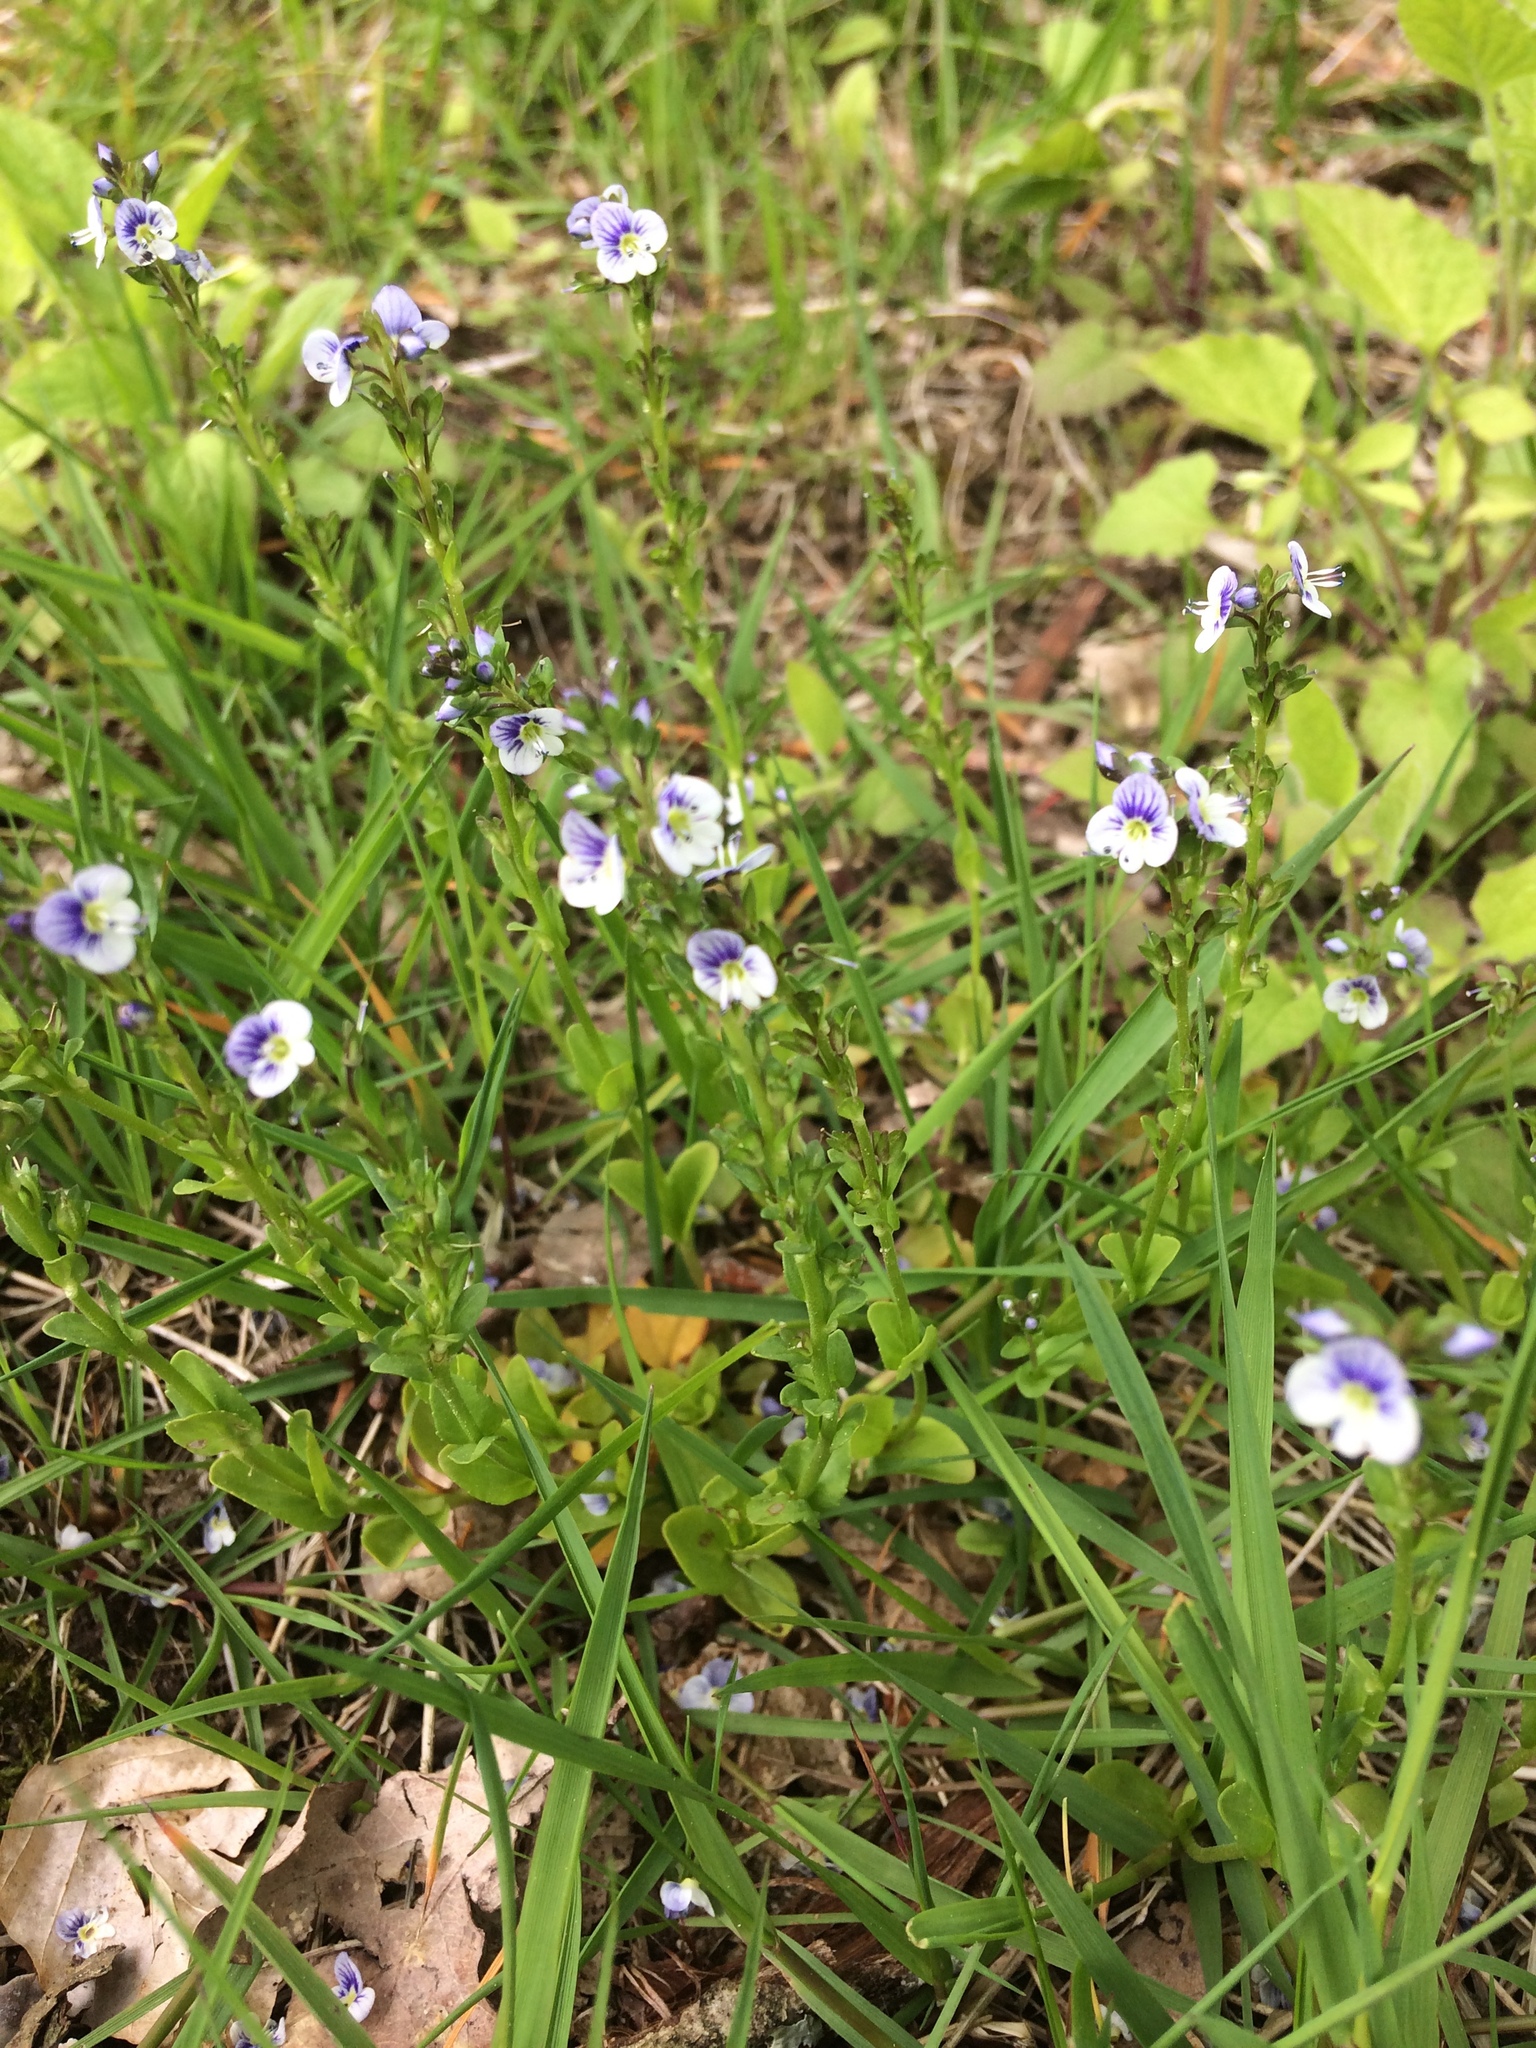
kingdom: Plantae
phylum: Tracheophyta
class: Magnoliopsida
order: Lamiales
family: Plantaginaceae
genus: Veronica
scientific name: Veronica serpyllifolia
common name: Thyme-leaved speedwell
